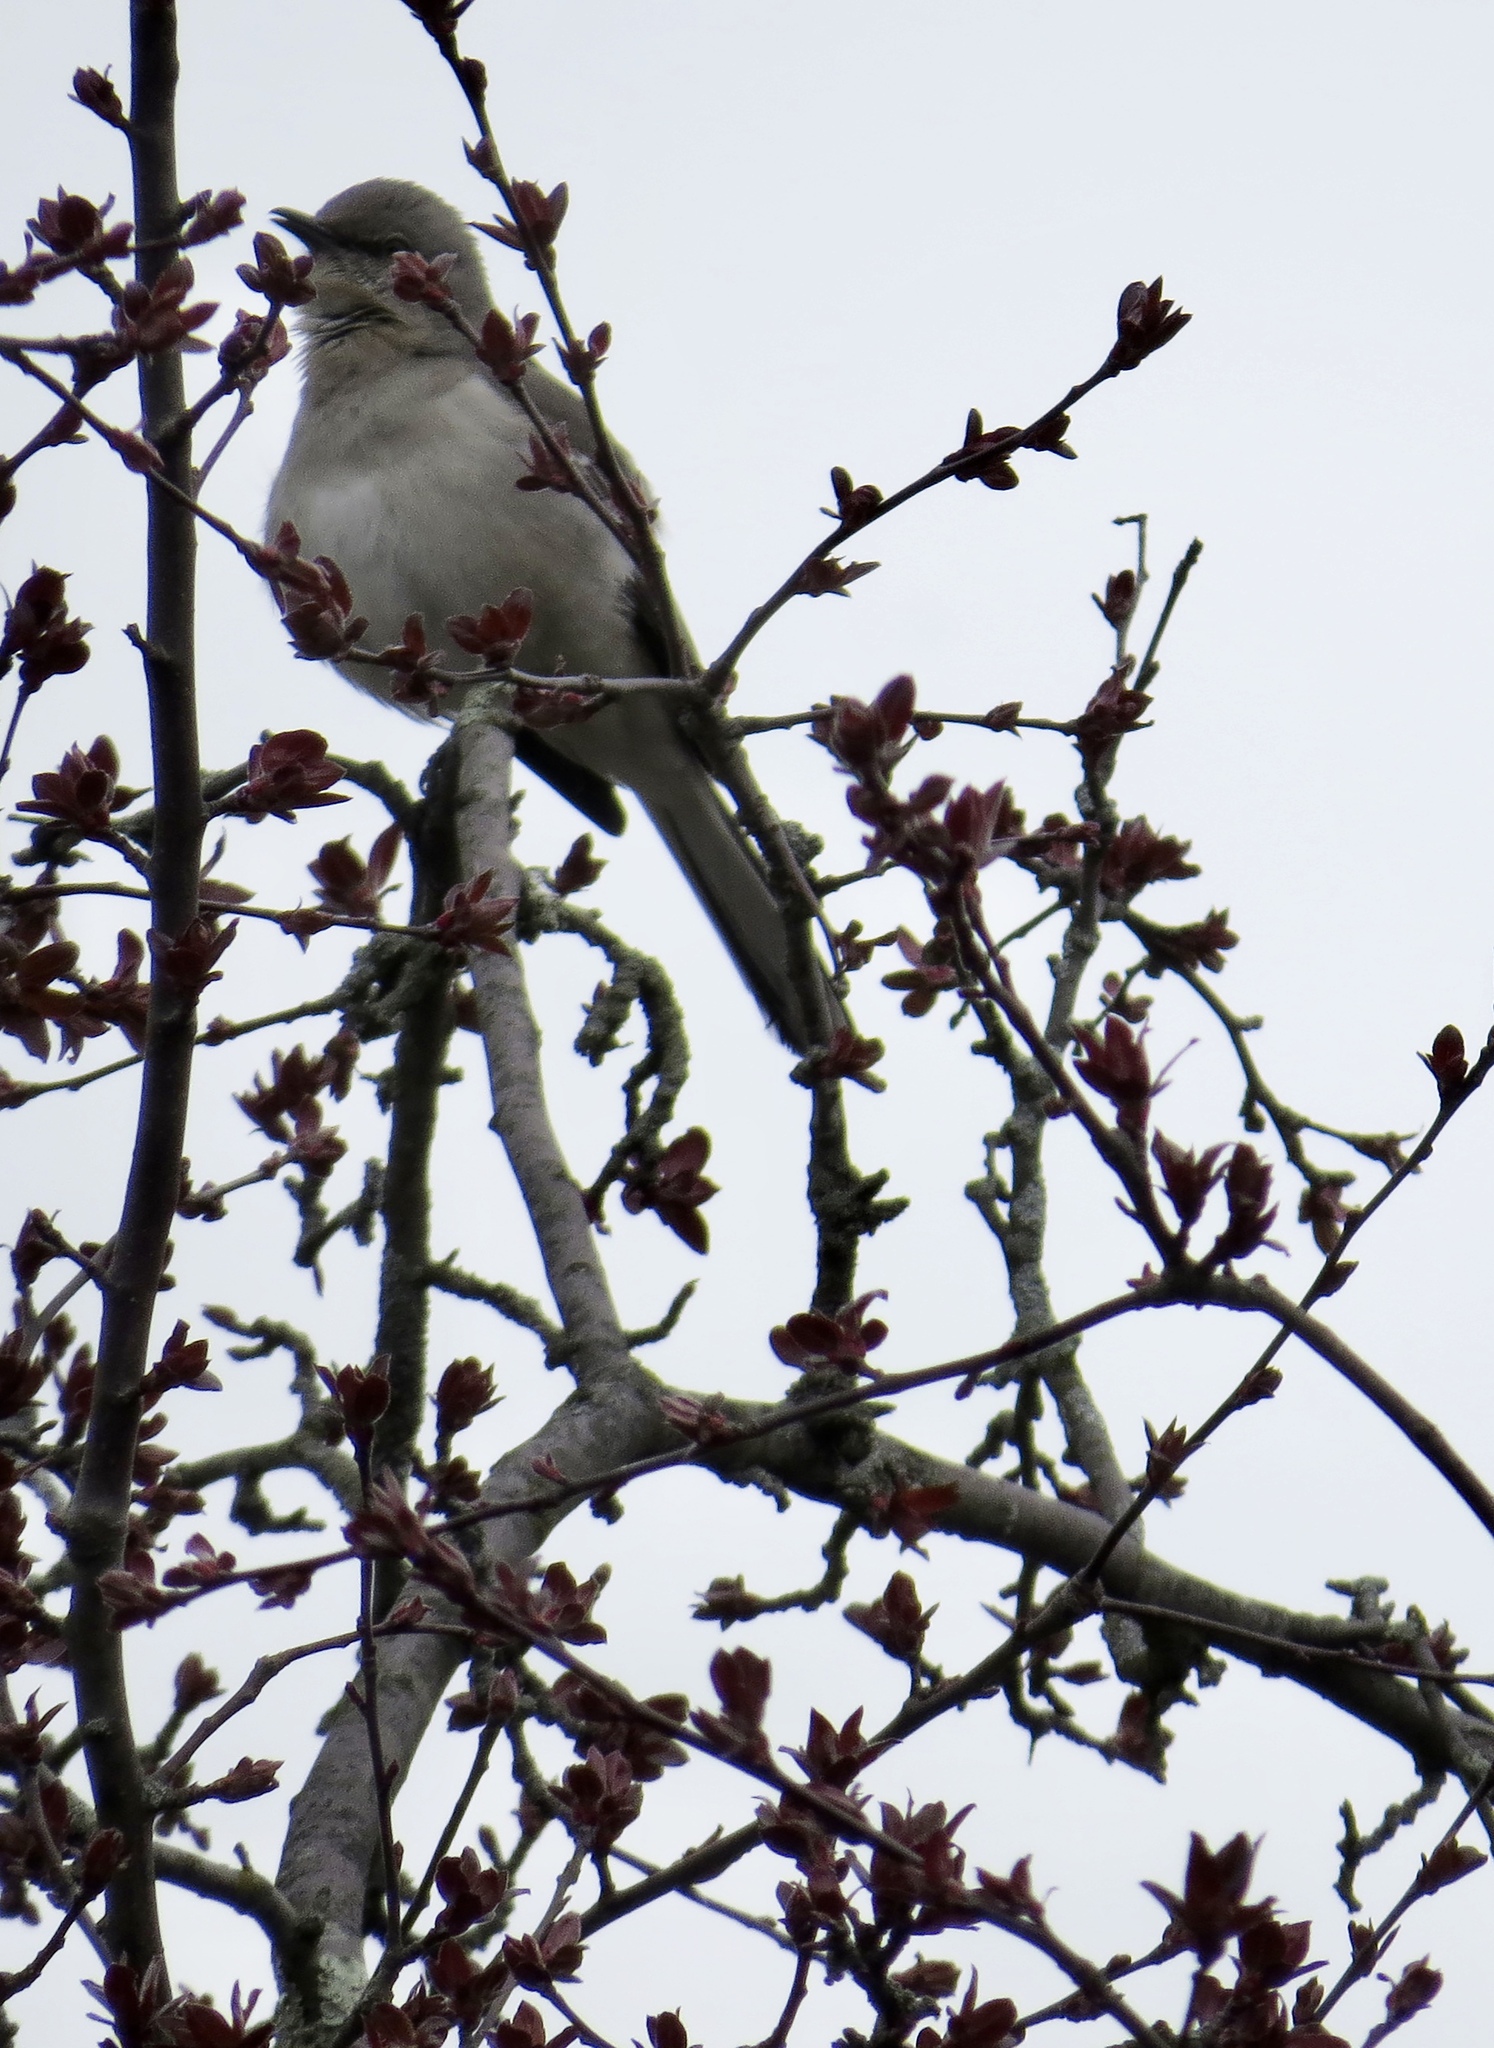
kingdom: Animalia
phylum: Chordata
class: Aves
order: Passeriformes
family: Mimidae
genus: Mimus
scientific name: Mimus polyglottos
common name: Northern mockingbird
